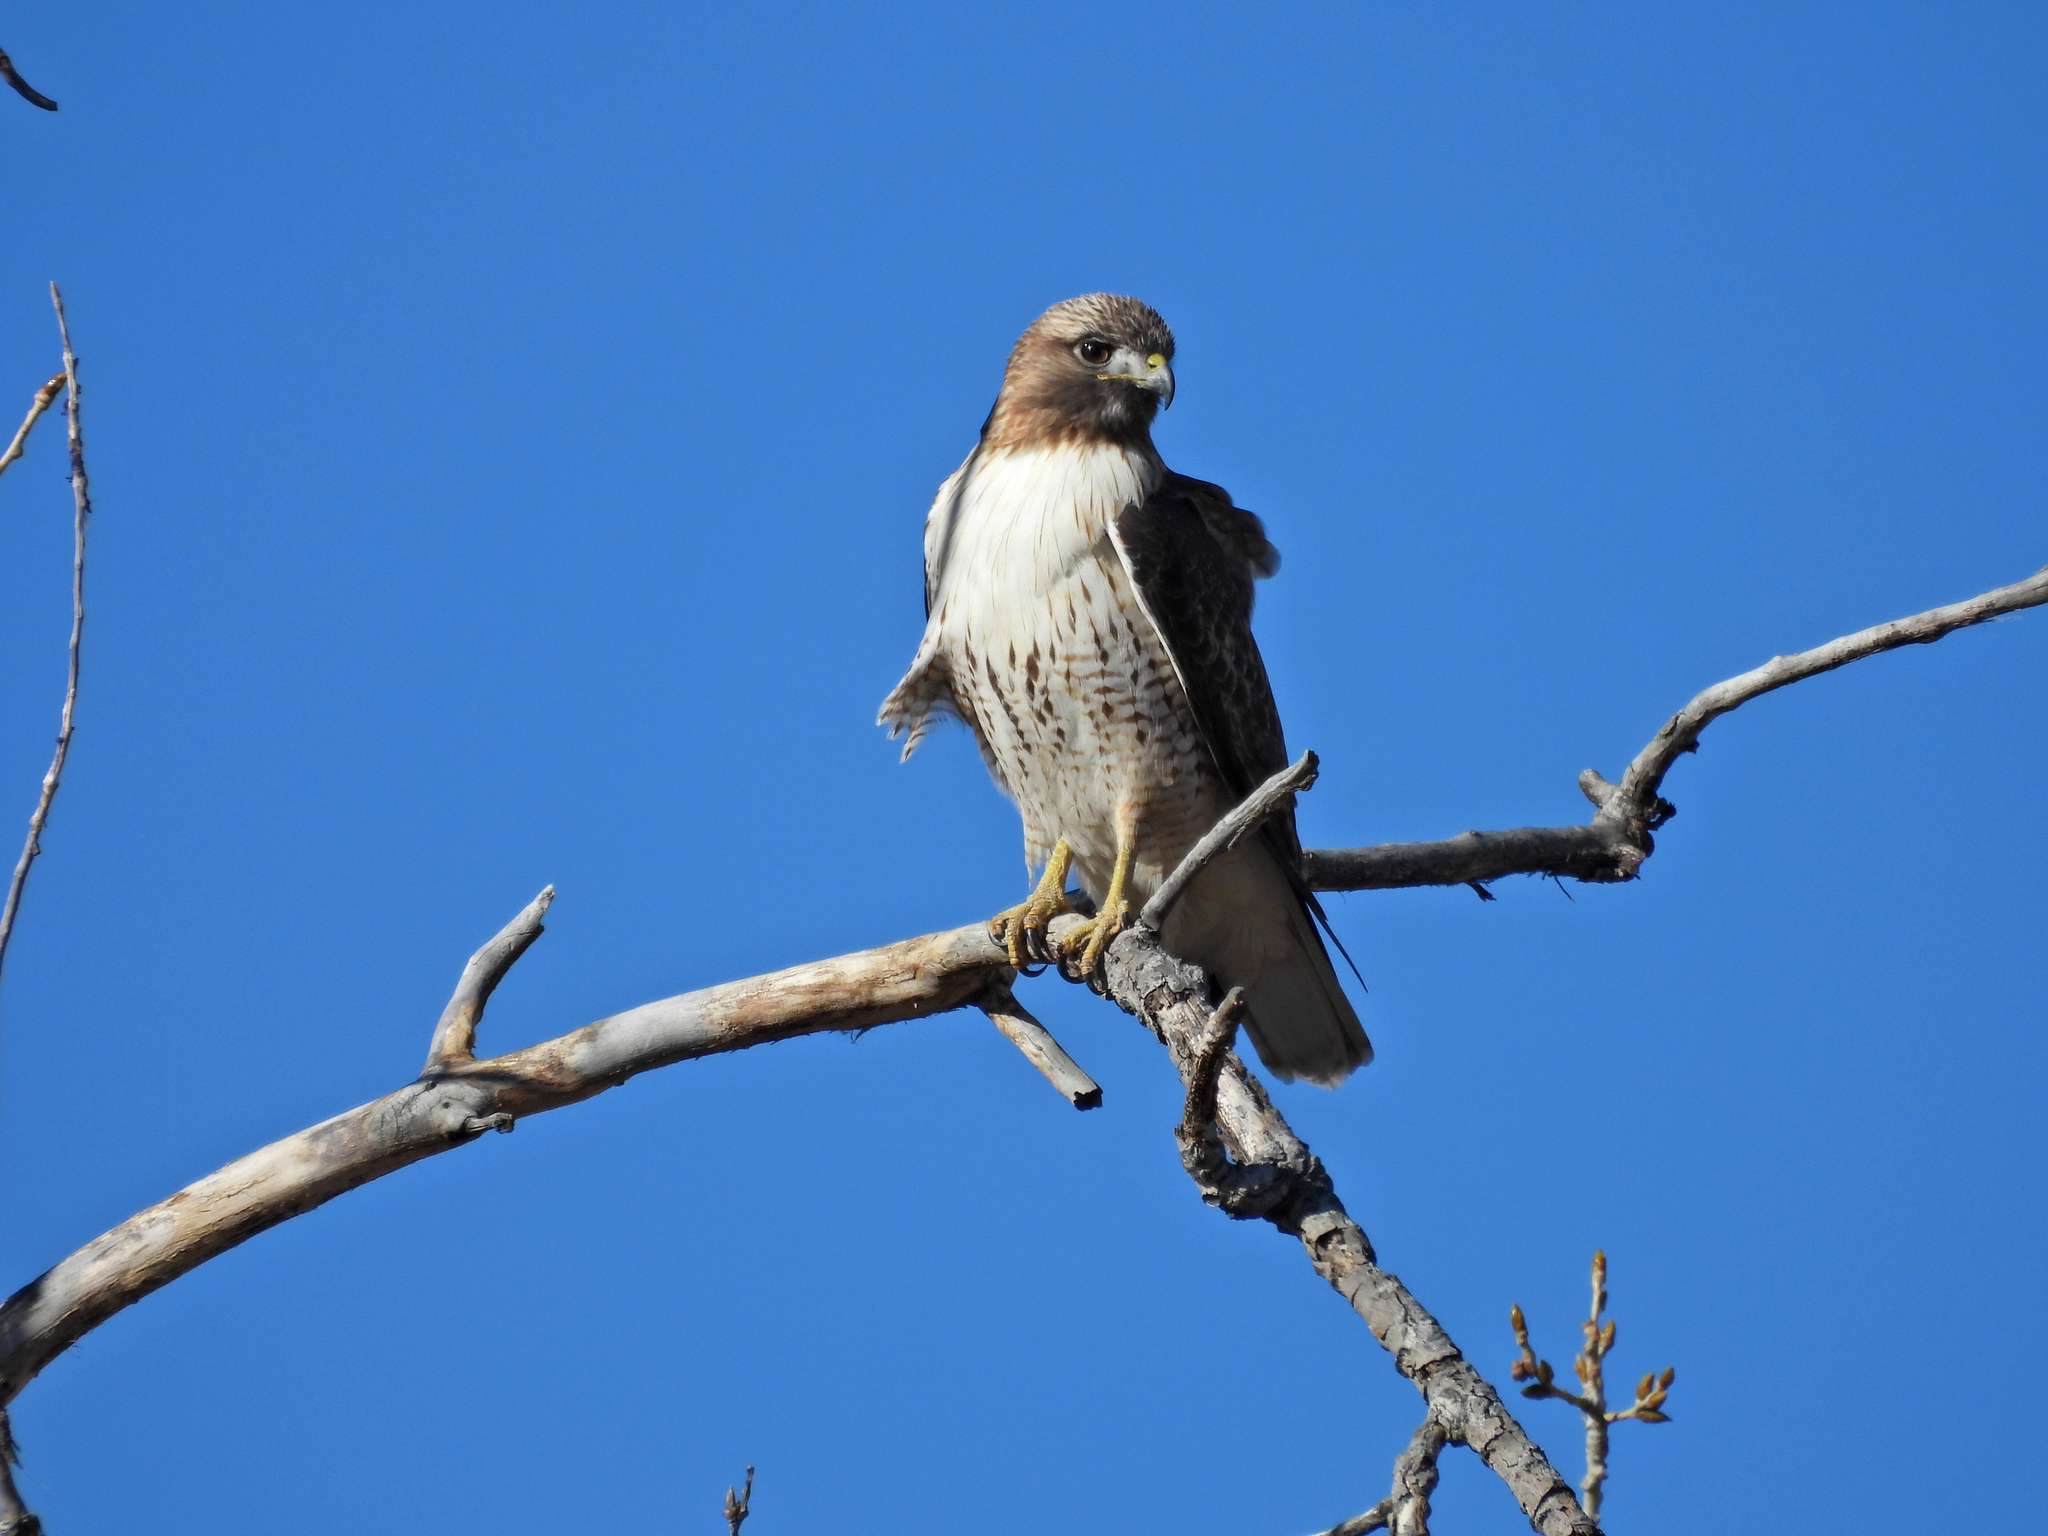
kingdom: Animalia
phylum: Chordata
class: Aves
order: Accipitriformes
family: Accipitridae
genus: Buteo
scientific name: Buteo jamaicensis
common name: Red-tailed hawk
